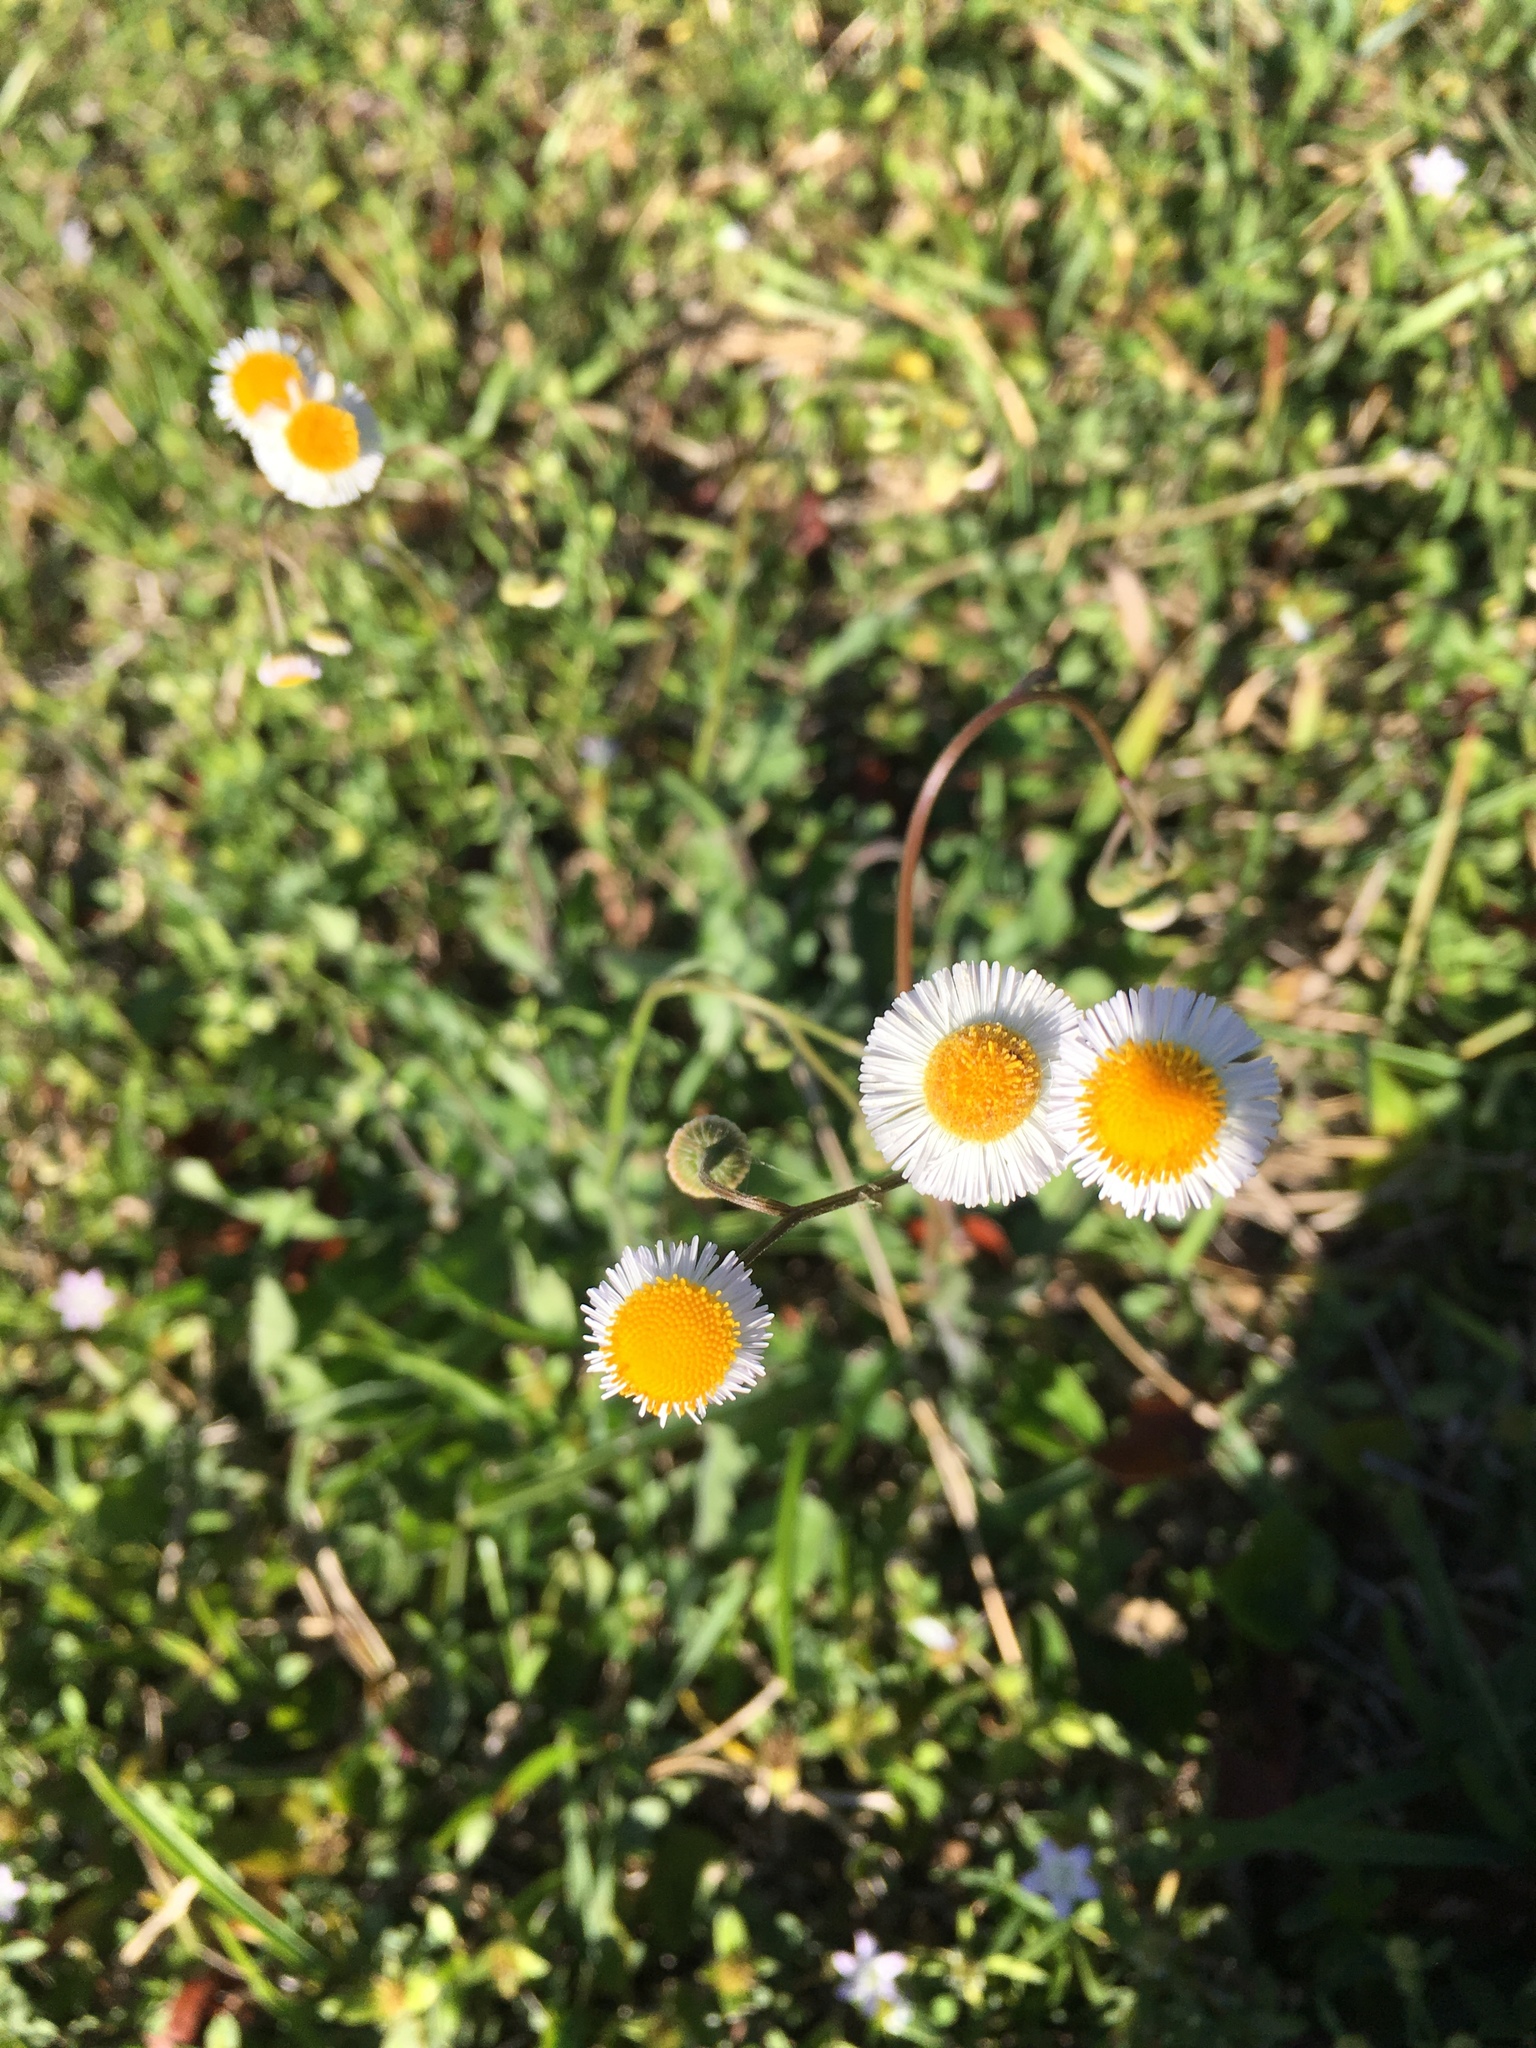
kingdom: Plantae
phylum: Tracheophyta
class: Magnoliopsida
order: Asterales
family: Asteraceae
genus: Erigeron
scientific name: Erigeron quercifolius
